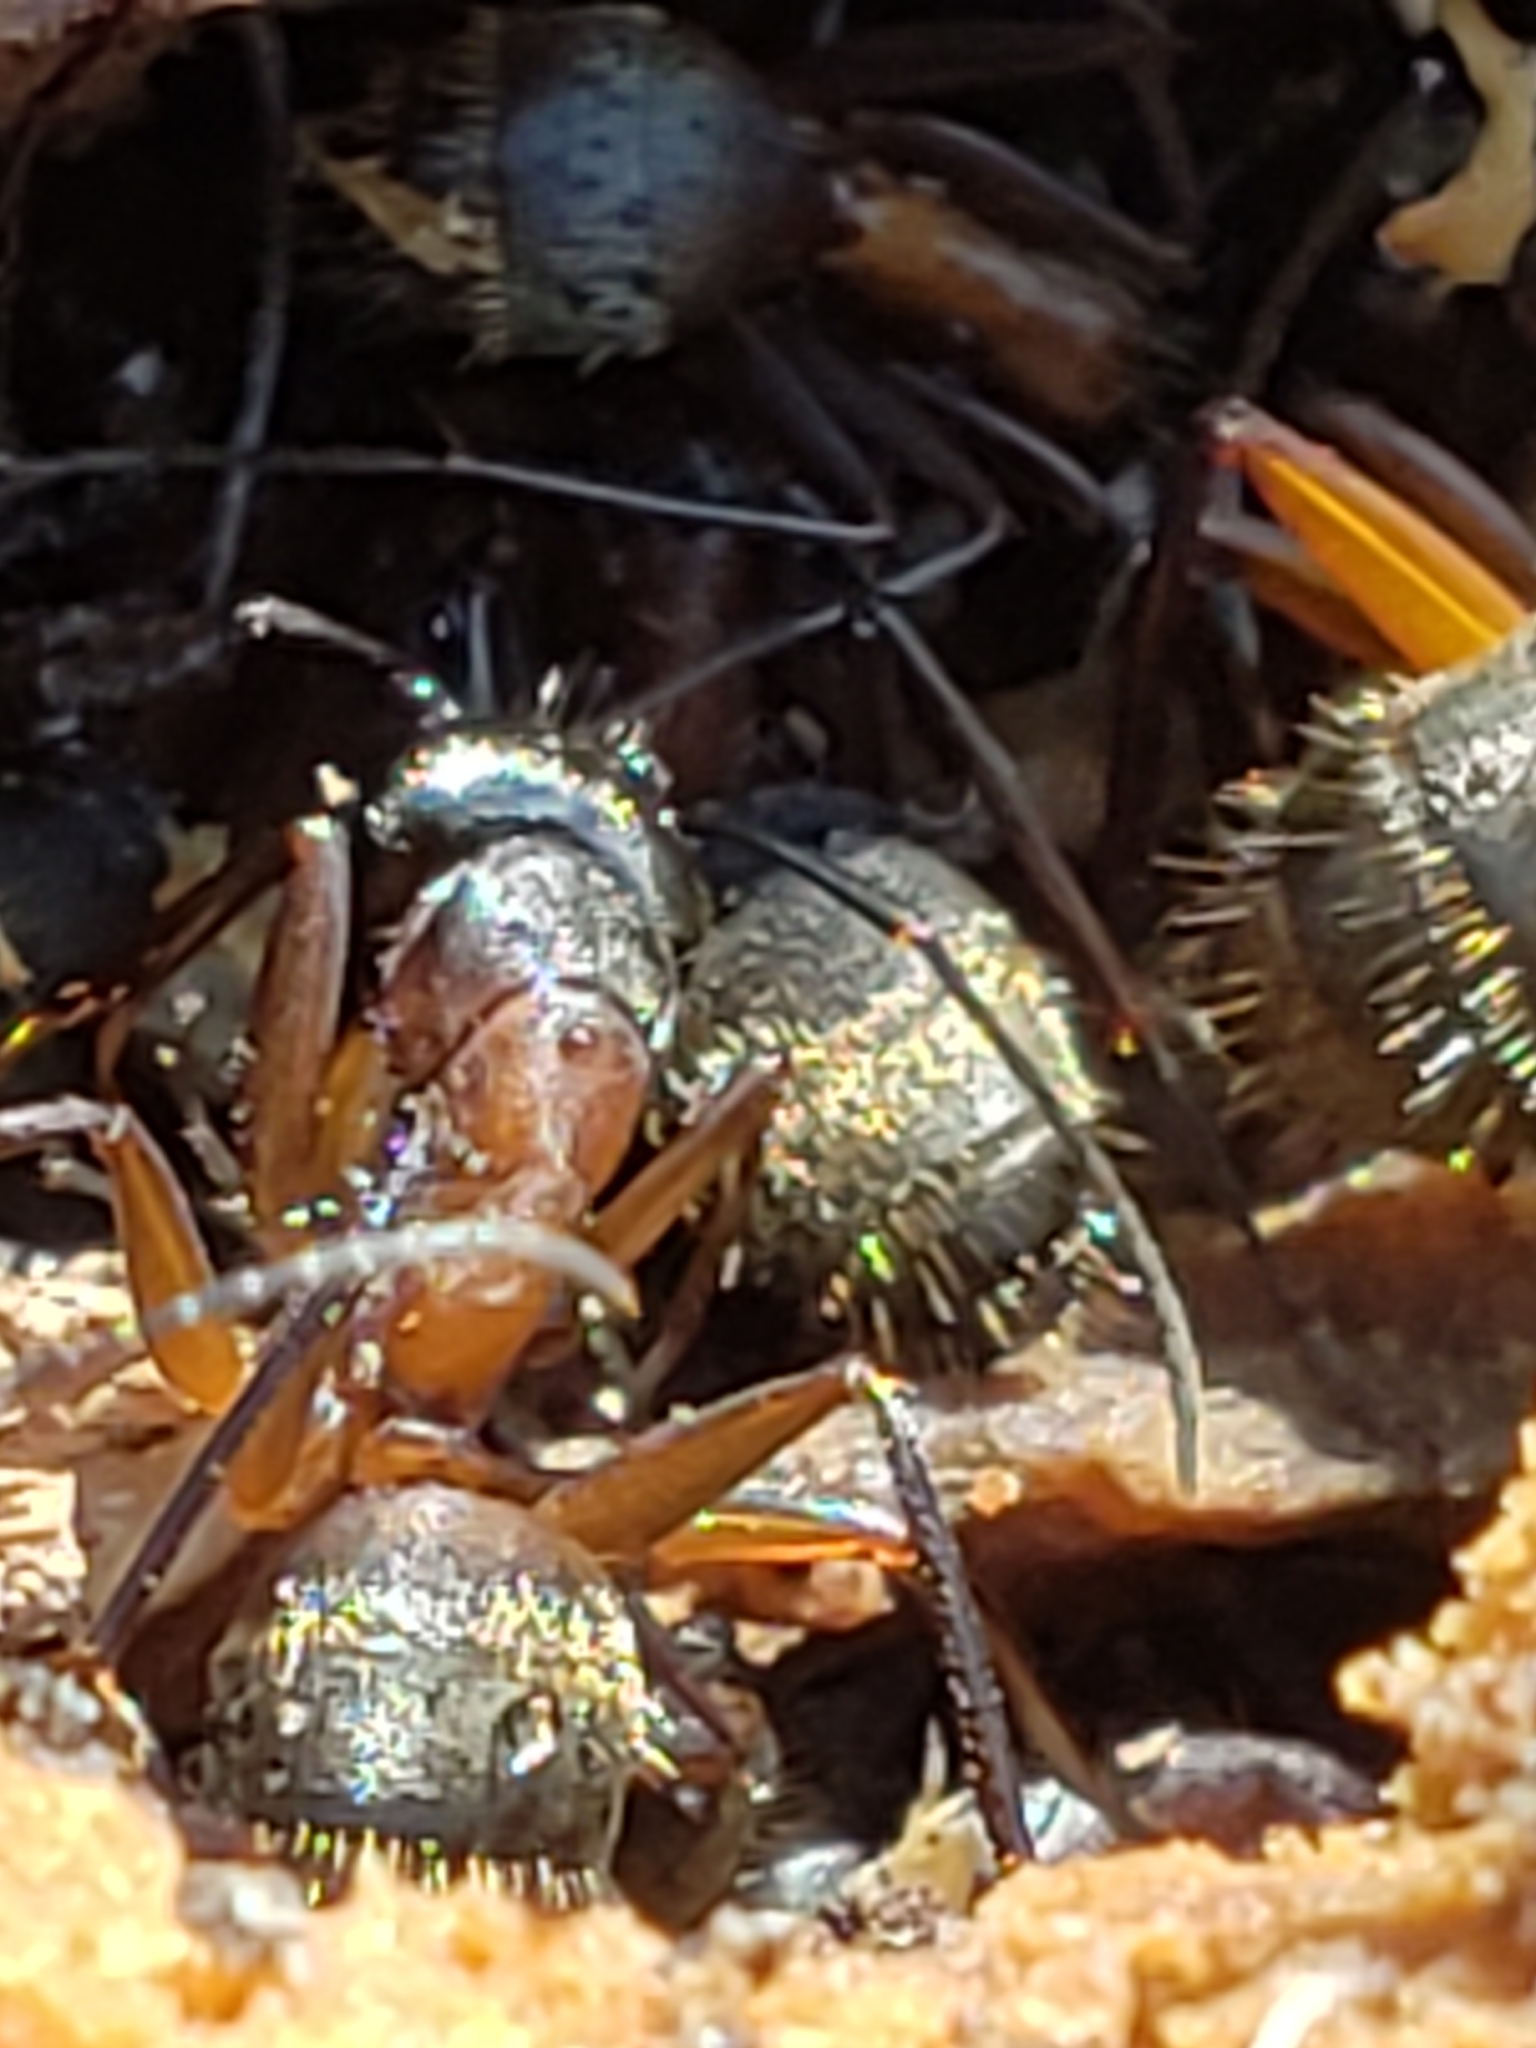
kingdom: Animalia
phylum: Arthropoda
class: Insecta
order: Hymenoptera
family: Formicidae
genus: Camponotus
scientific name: Camponotus chromaiodes
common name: Red carpenter ant
